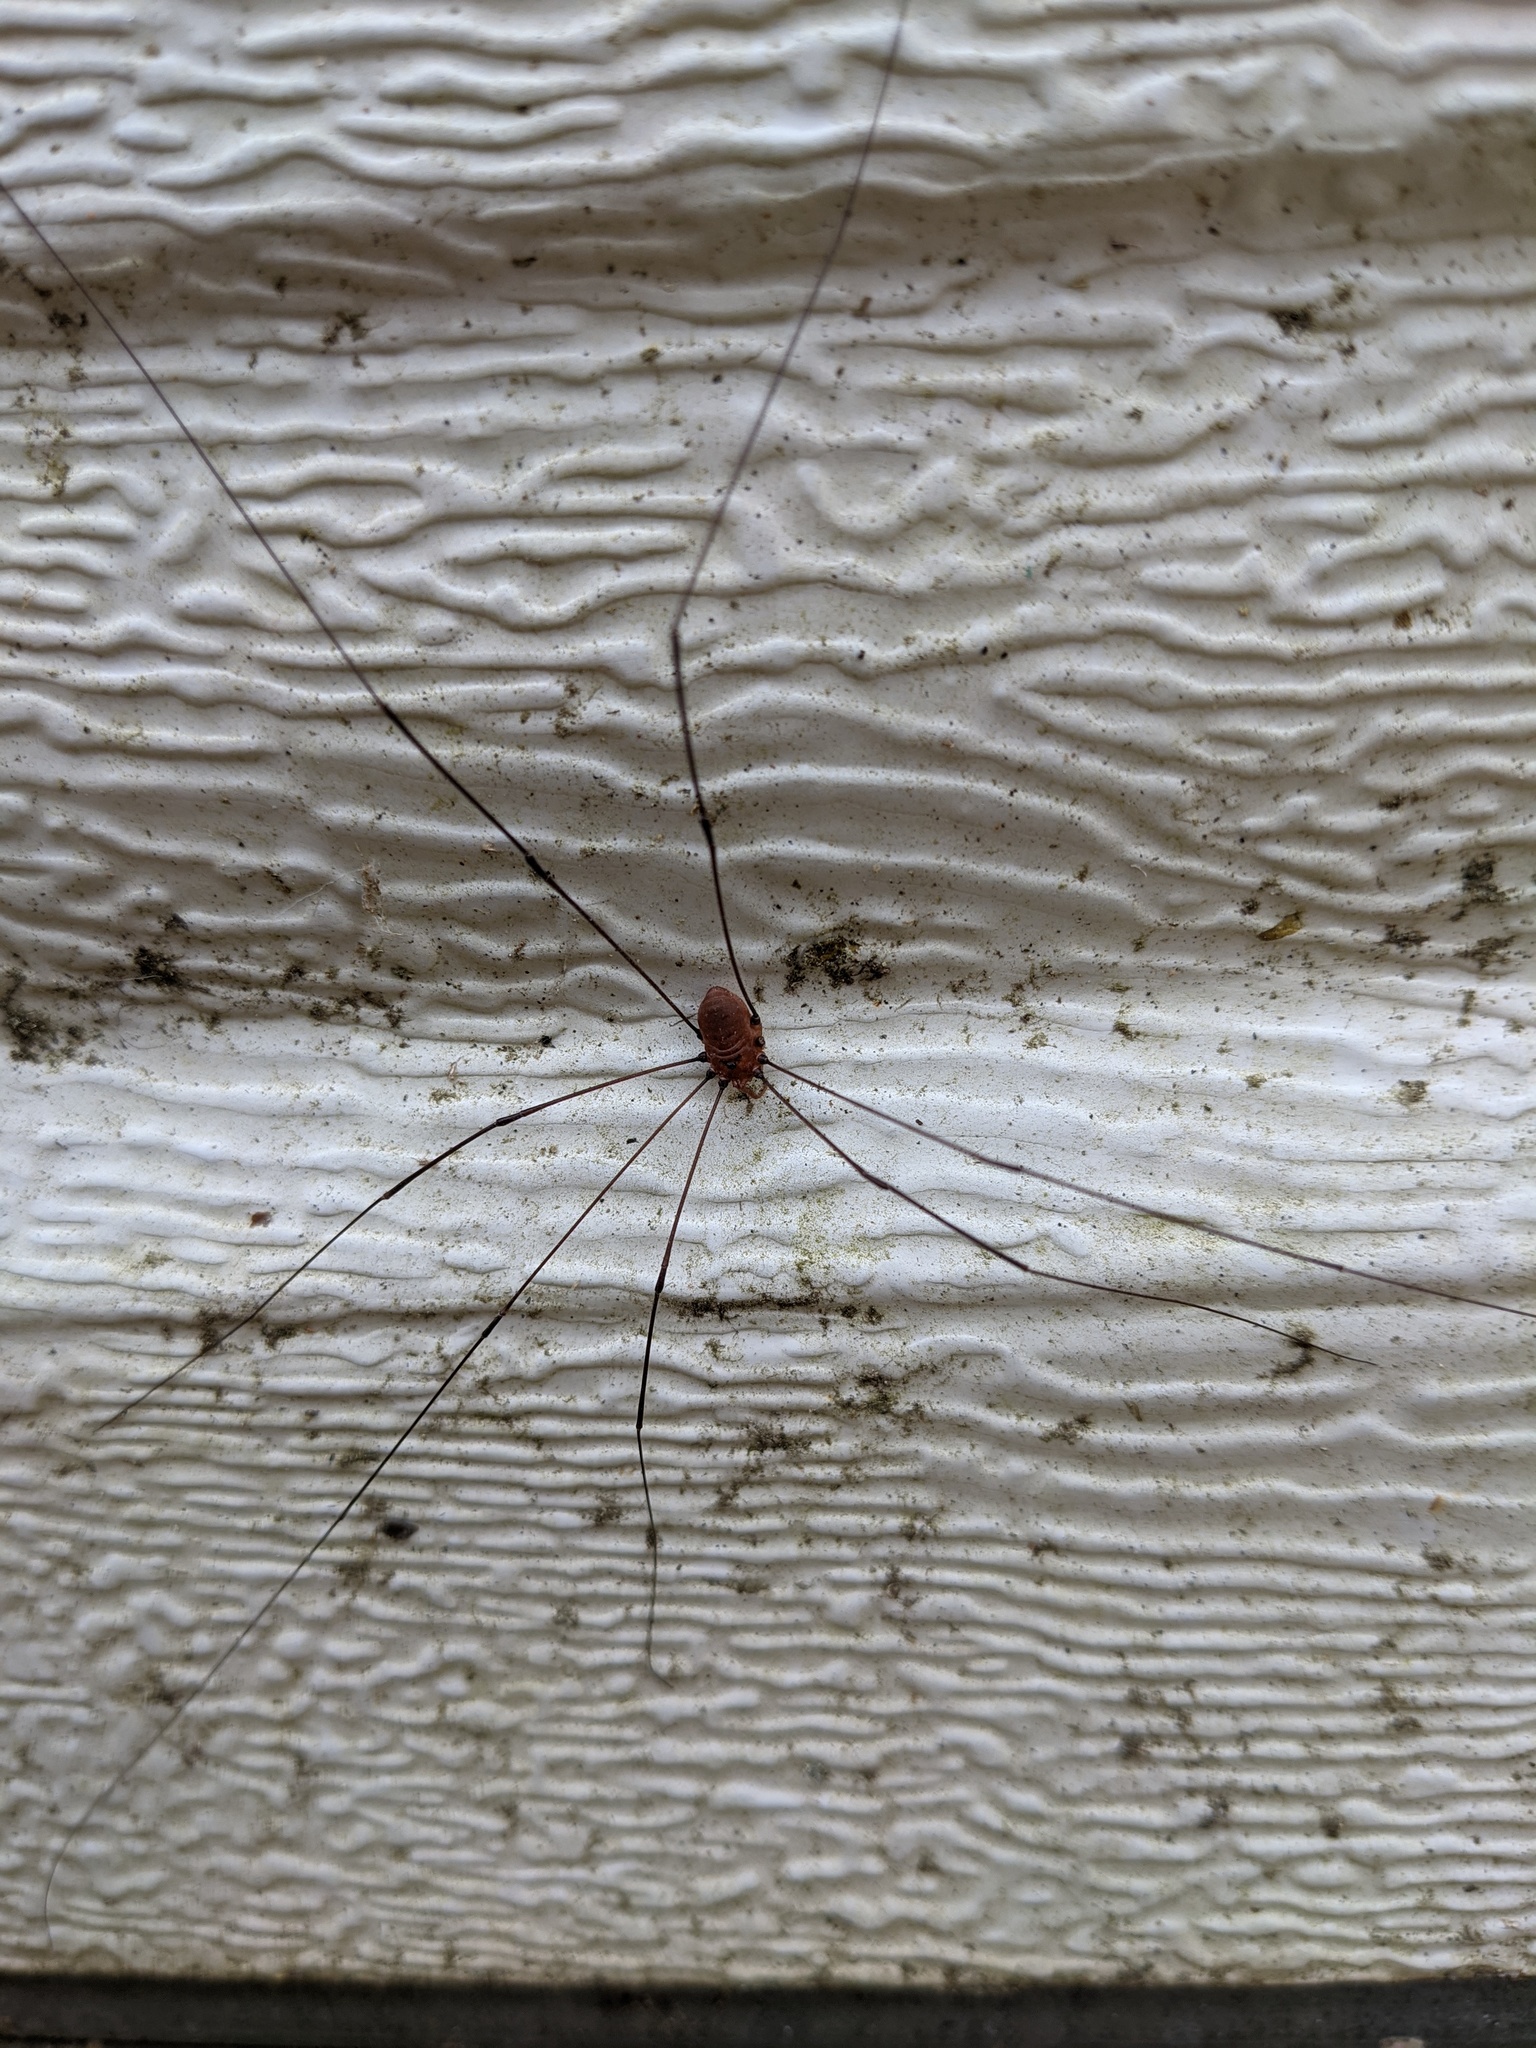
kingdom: Animalia
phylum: Arthropoda
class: Arachnida
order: Opiliones
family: Sclerosomatidae
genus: Leiobunum
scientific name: Leiobunum vittatum
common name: Eastern harvestman
